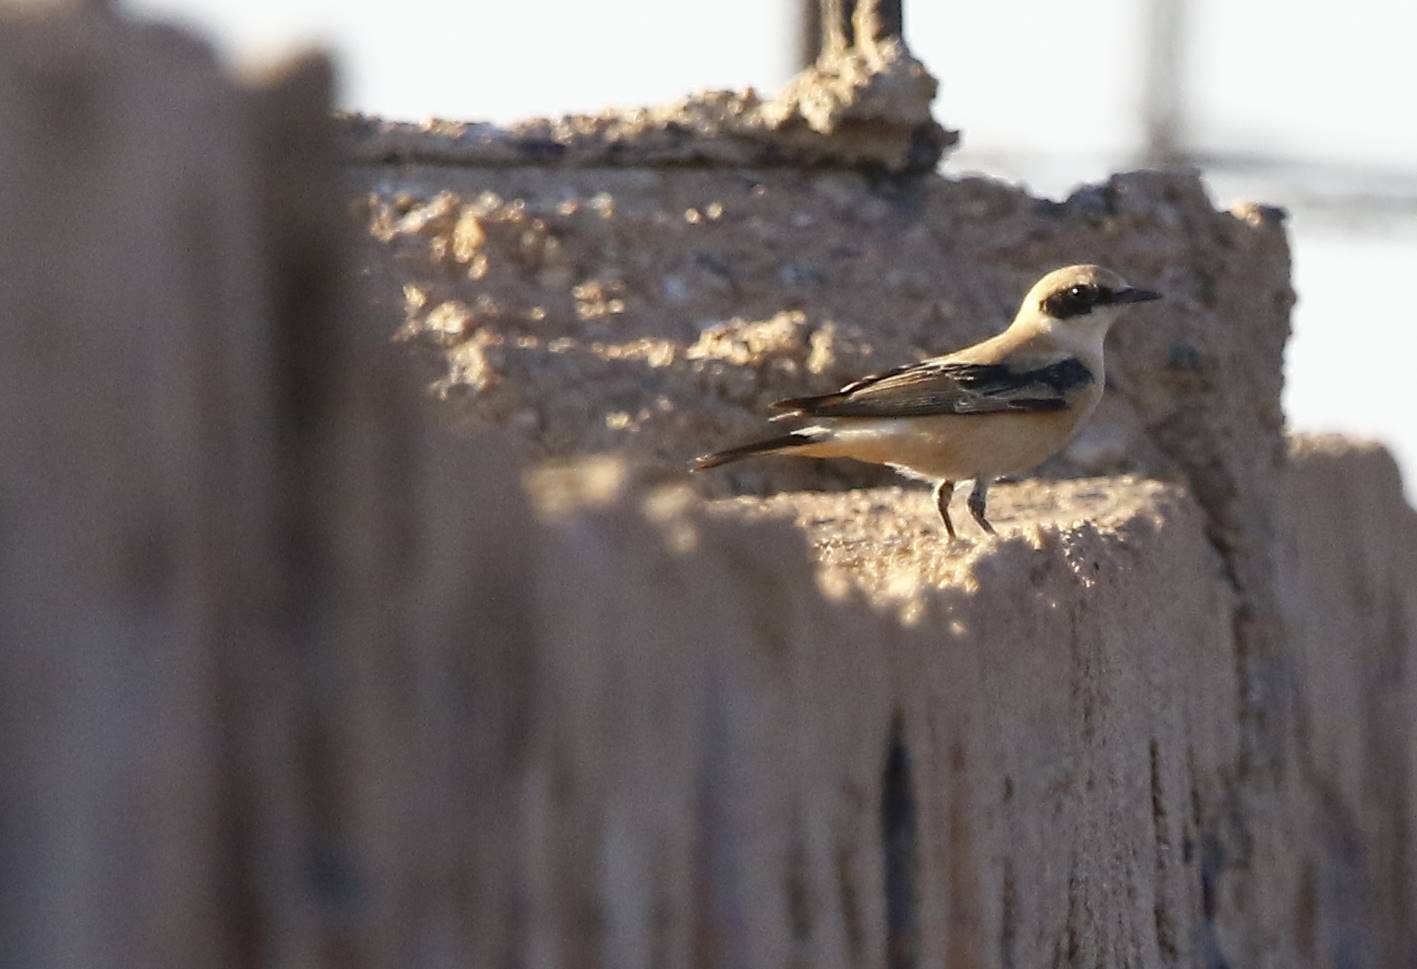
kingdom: Animalia
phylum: Chordata
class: Aves
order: Passeriformes
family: Muscicapidae
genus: Oenanthe
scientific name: Oenanthe hispanica
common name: Black-eared wheatear
